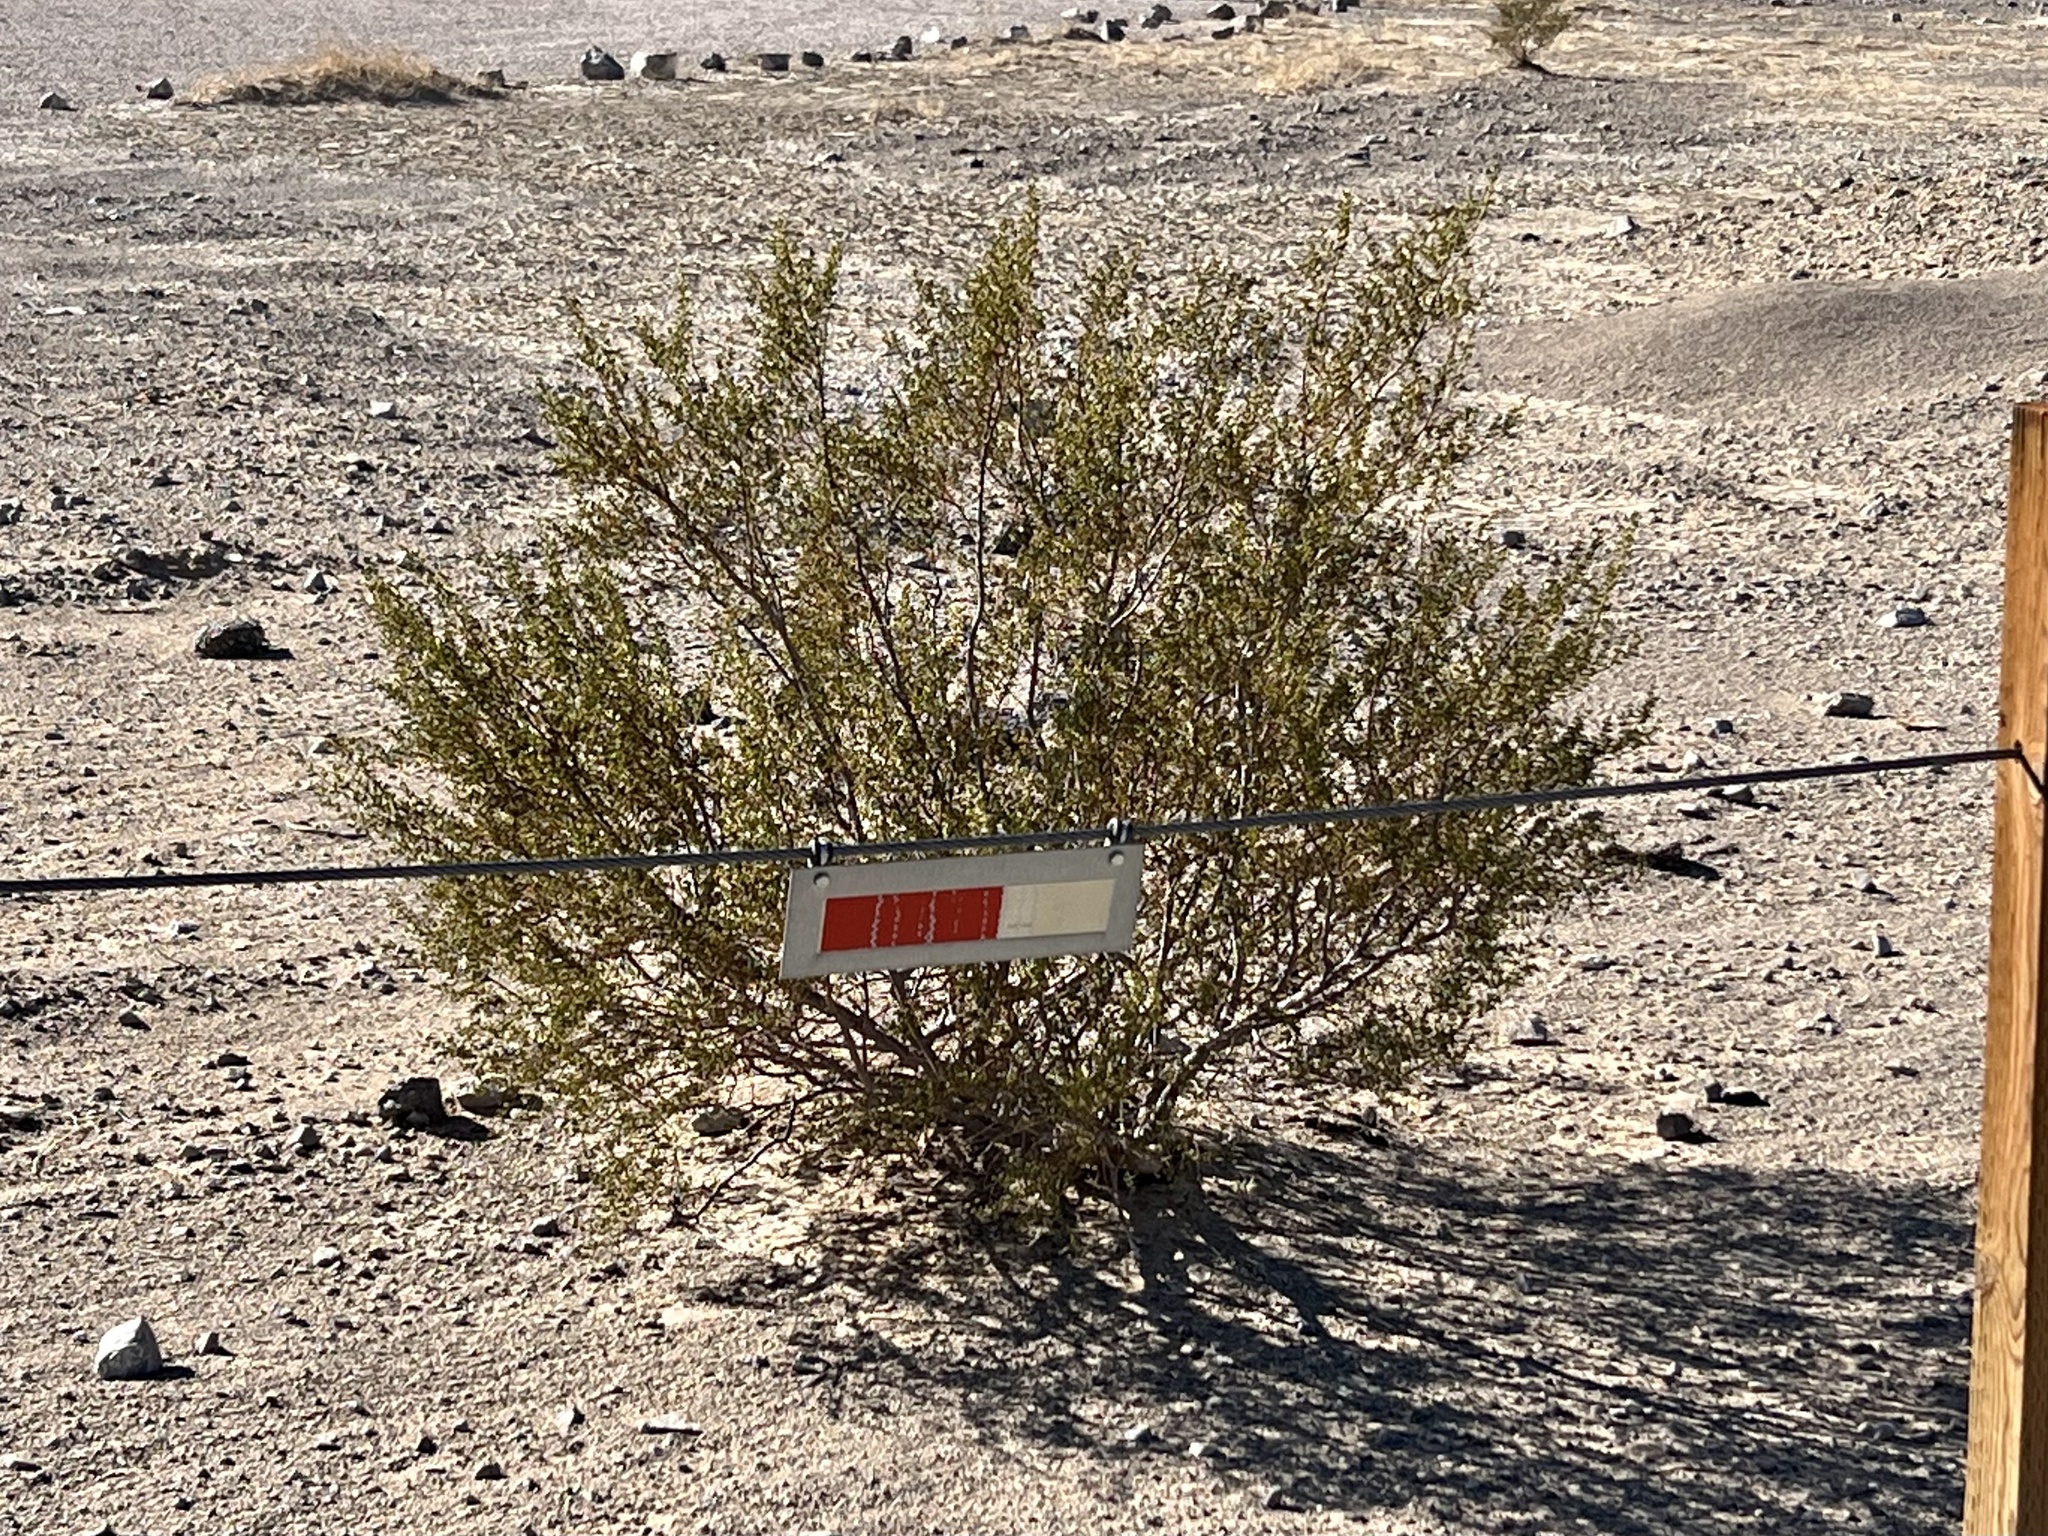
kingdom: Plantae
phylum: Tracheophyta
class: Magnoliopsida
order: Zygophyllales
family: Zygophyllaceae
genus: Larrea
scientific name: Larrea tridentata
